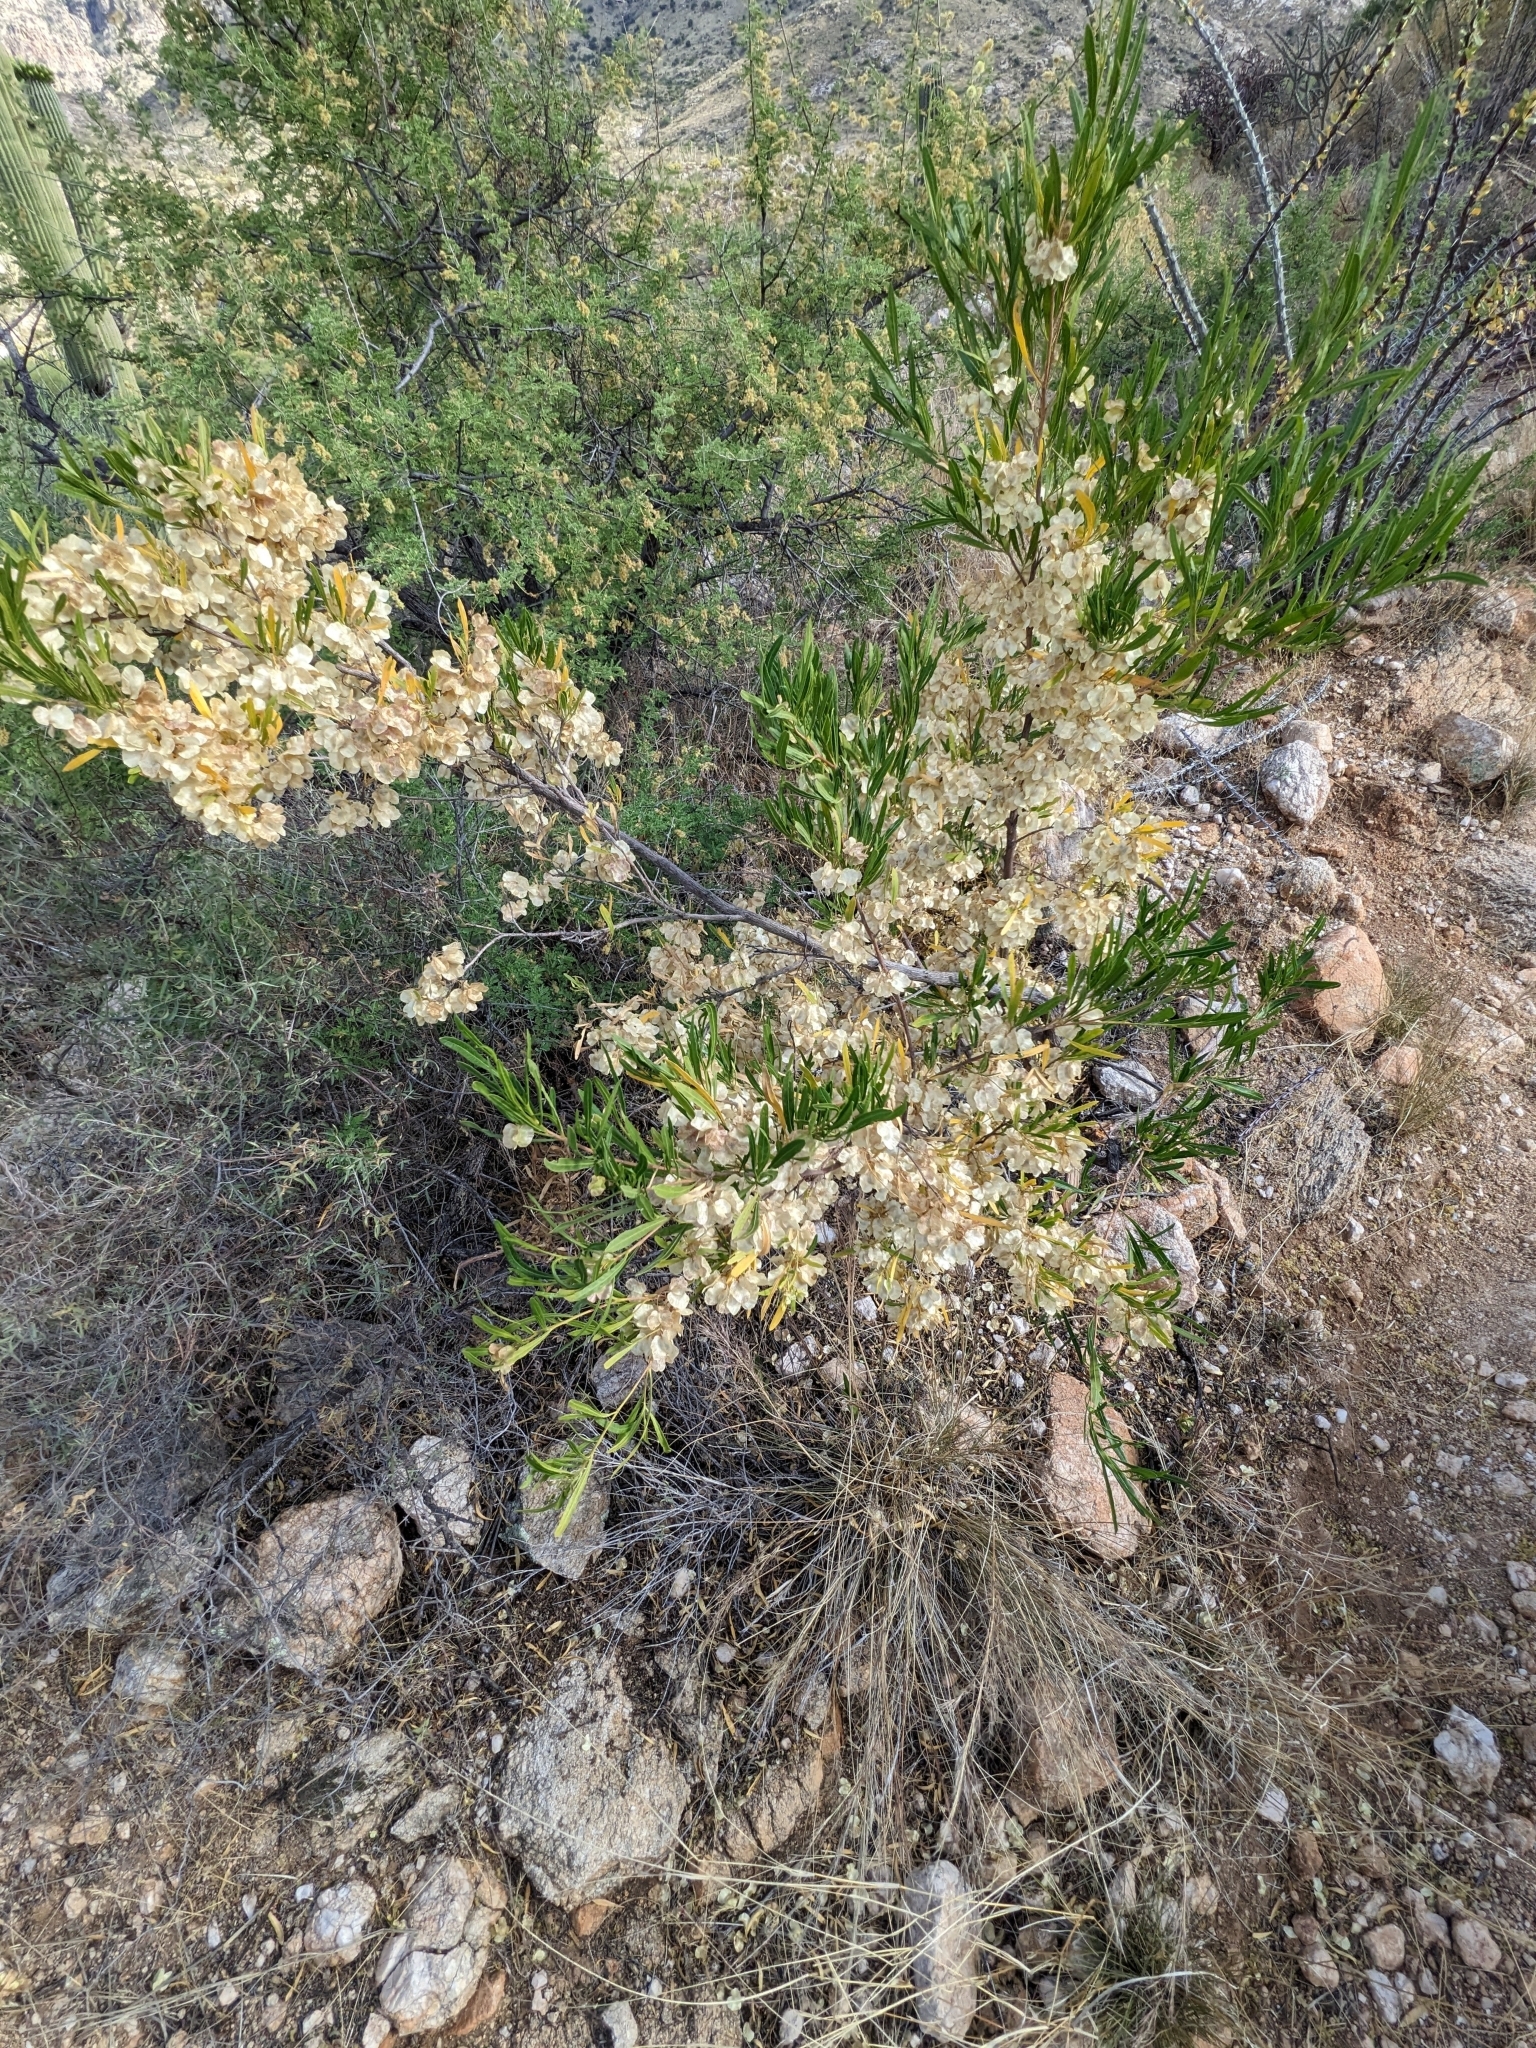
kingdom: Plantae
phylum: Tracheophyta
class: Magnoliopsida
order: Sapindales
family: Sapindaceae
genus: Dodonaea
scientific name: Dodonaea viscosa
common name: Hopbush
